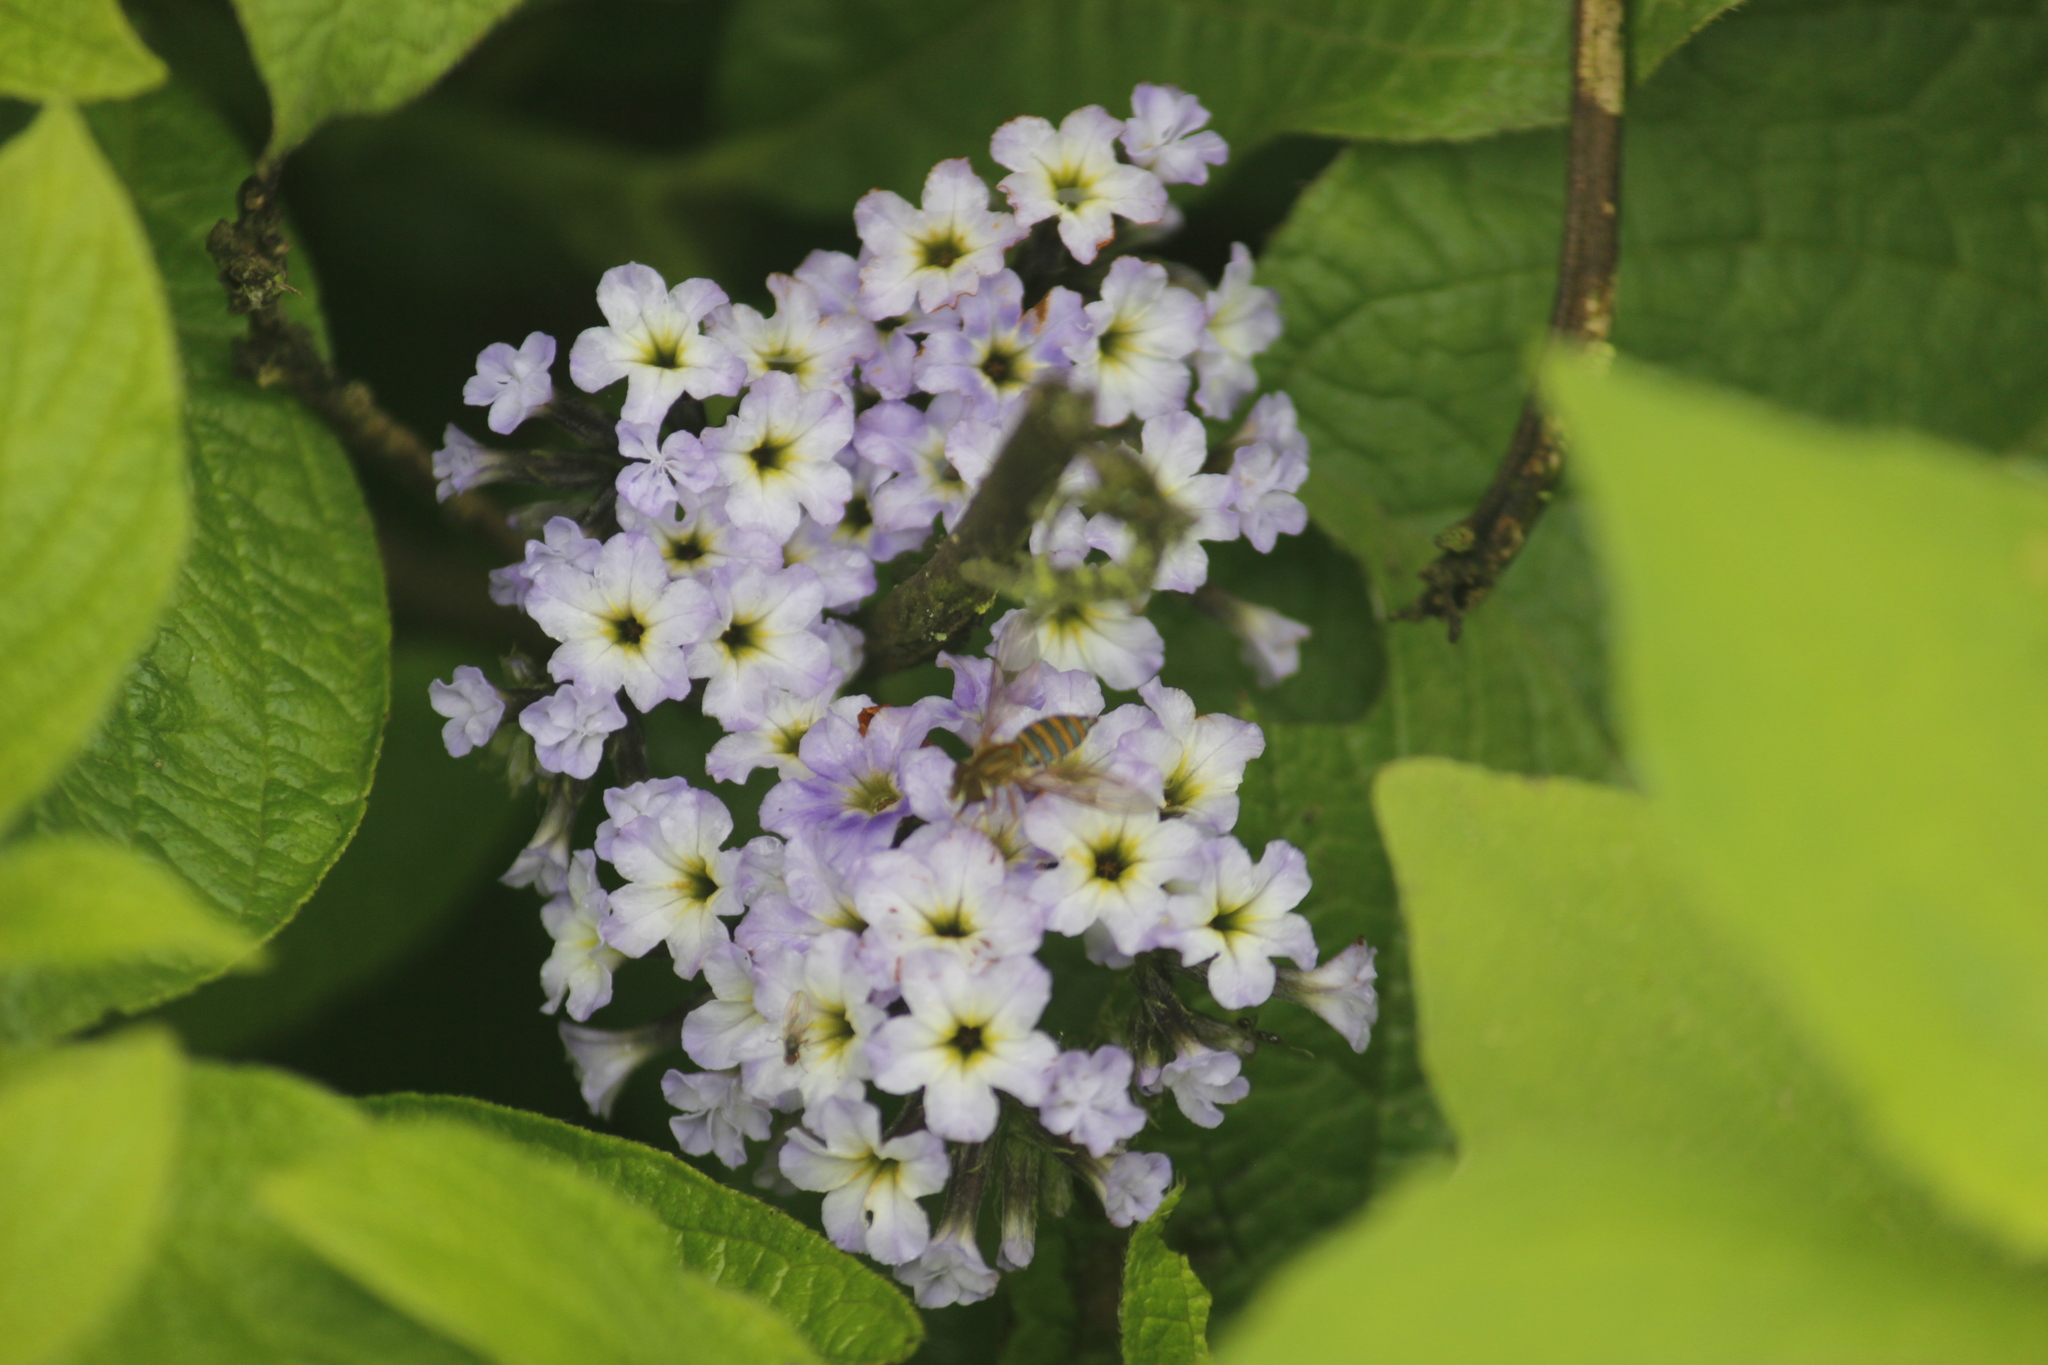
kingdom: Plantae
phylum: Tracheophyta
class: Magnoliopsida
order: Boraginales
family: Heliotropiaceae
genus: Heliotropium
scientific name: Heliotropium arborescens
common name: Cherry-pie
